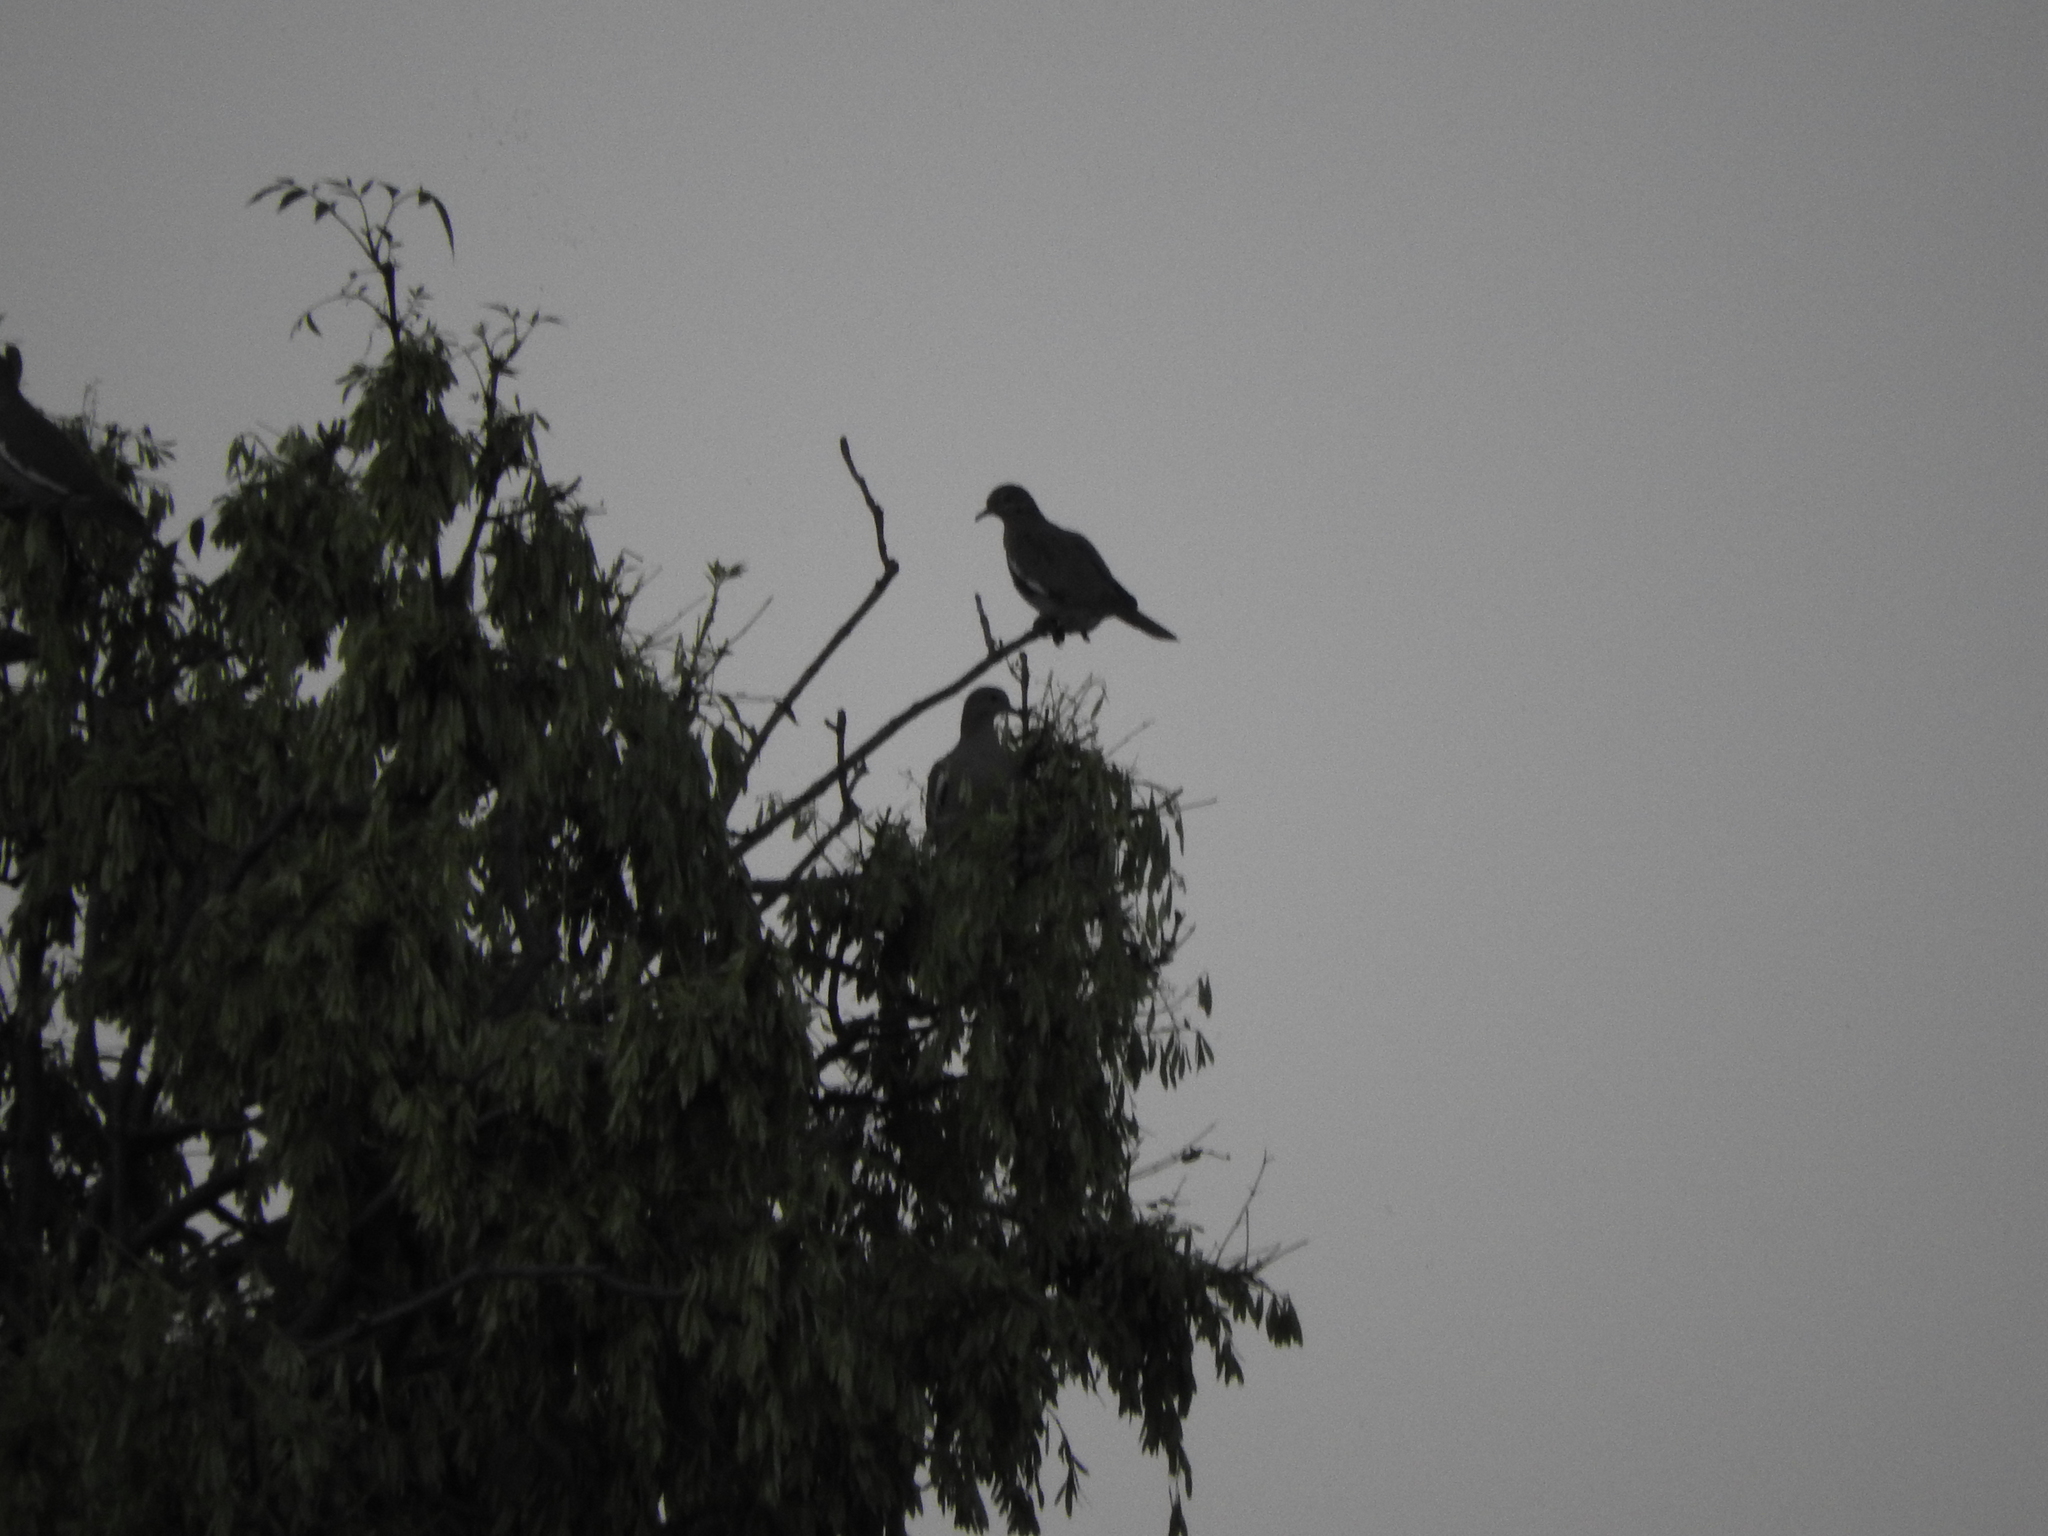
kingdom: Animalia
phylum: Chordata
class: Aves
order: Columbiformes
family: Columbidae
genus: Zenaida
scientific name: Zenaida asiatica
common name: White-winged dove
